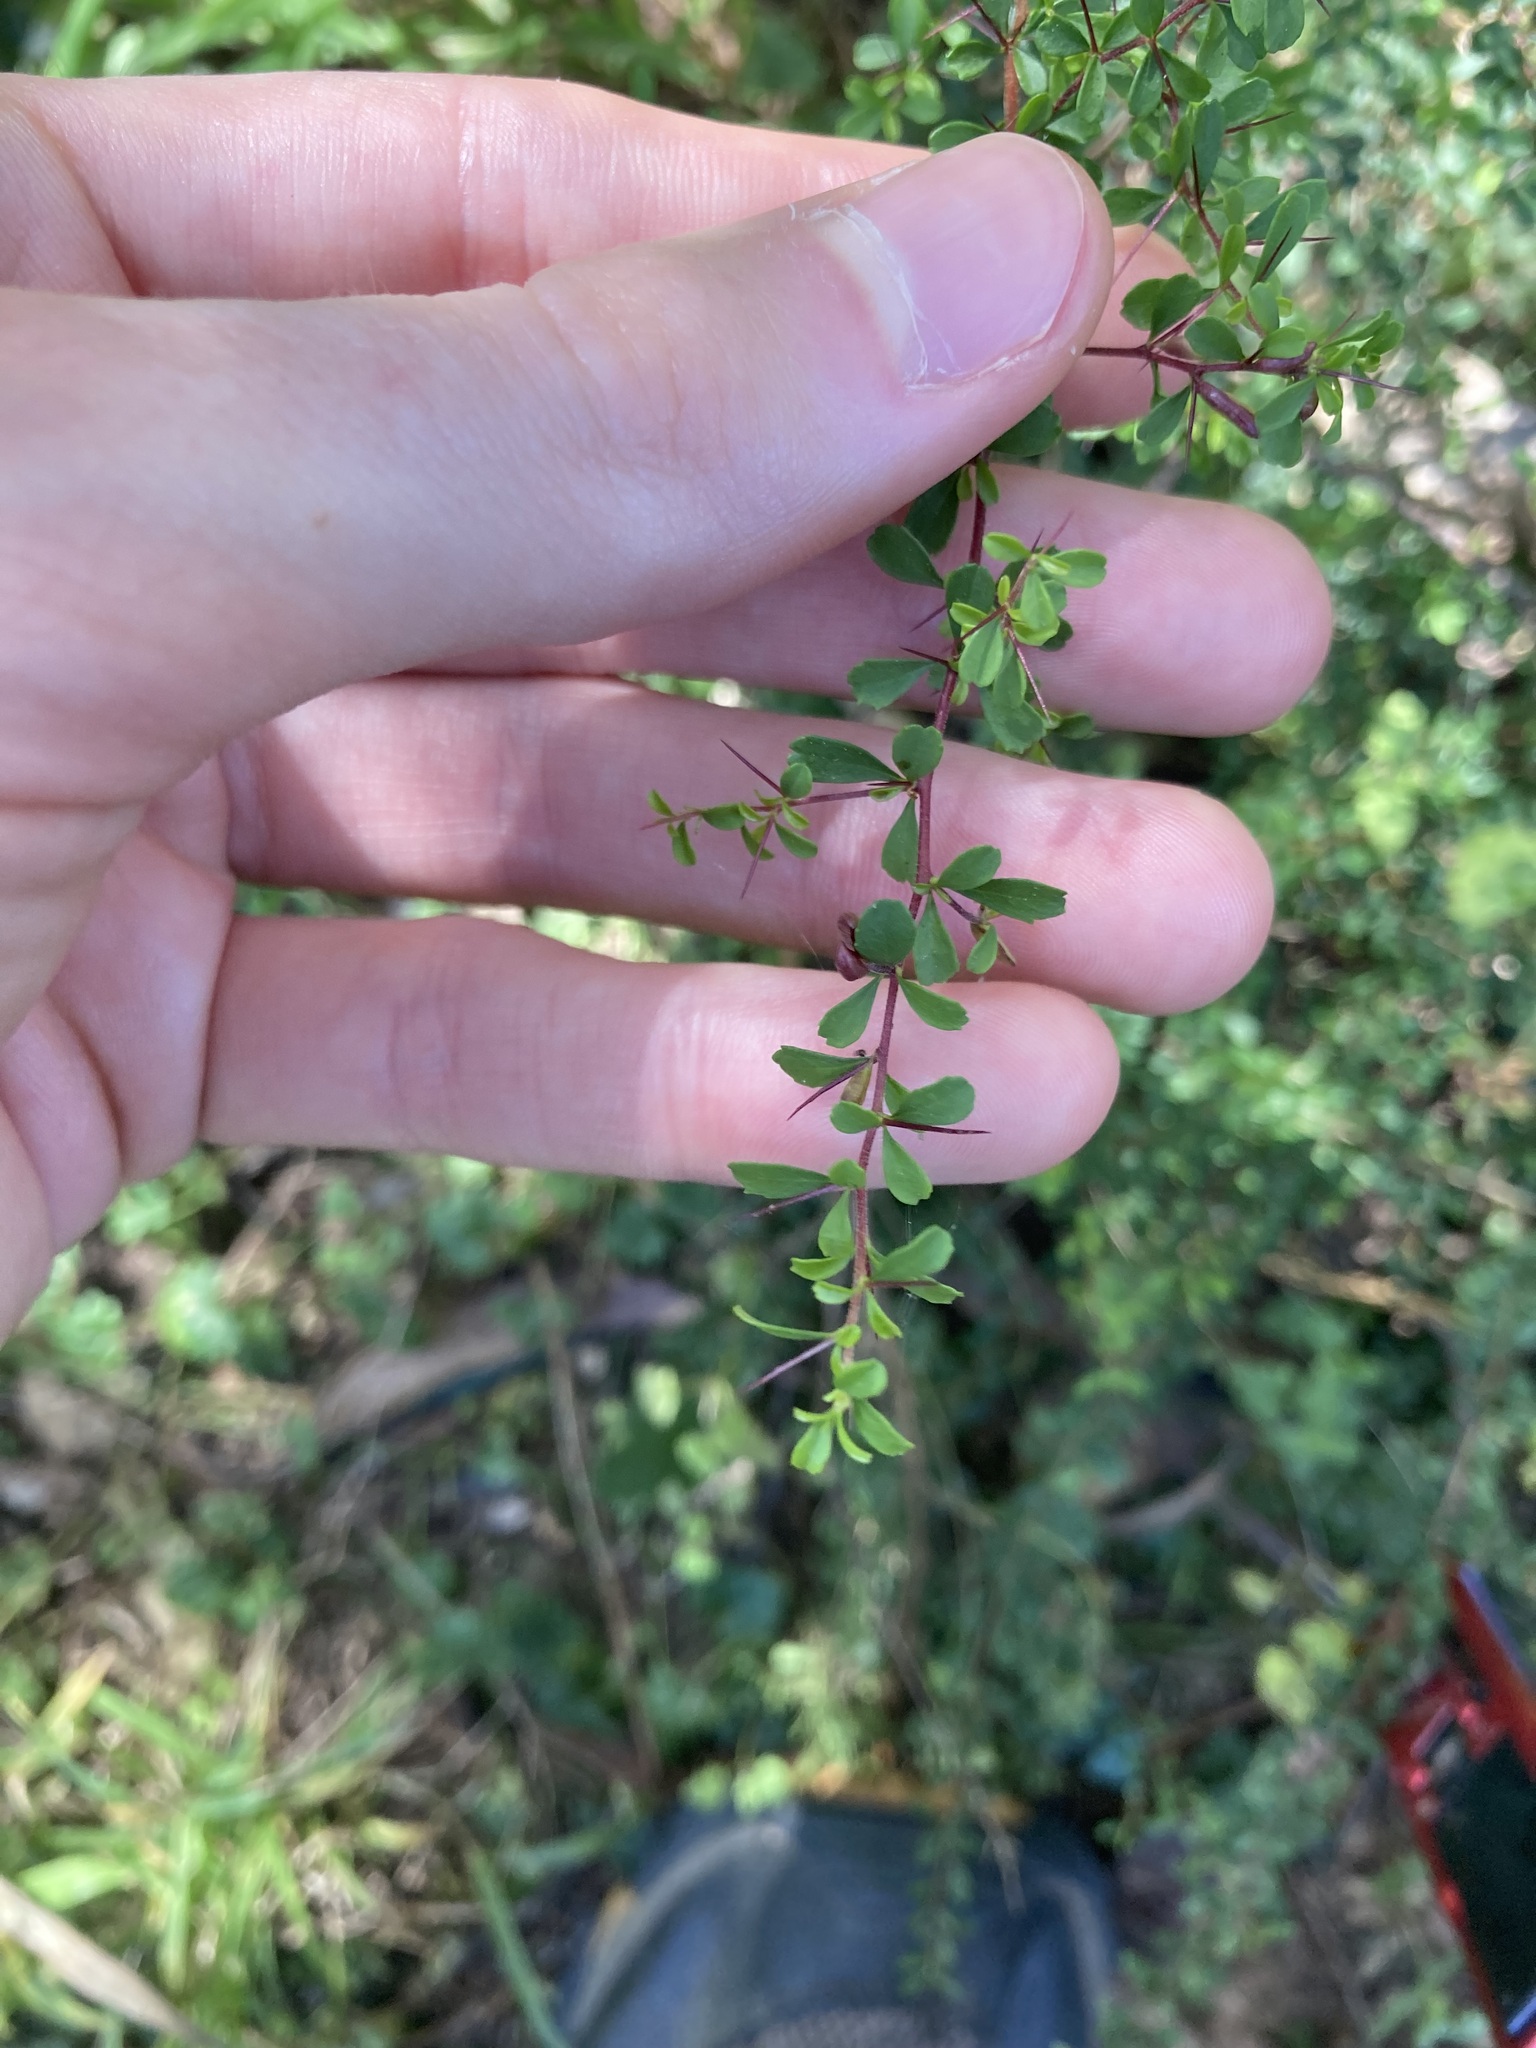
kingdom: Plantae
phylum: Tracheophyta
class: Magnoliopsida
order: Apiales
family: Pittosporaceae
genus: Bursaria
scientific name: Bursaria spinosa
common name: Australian blackthorn
